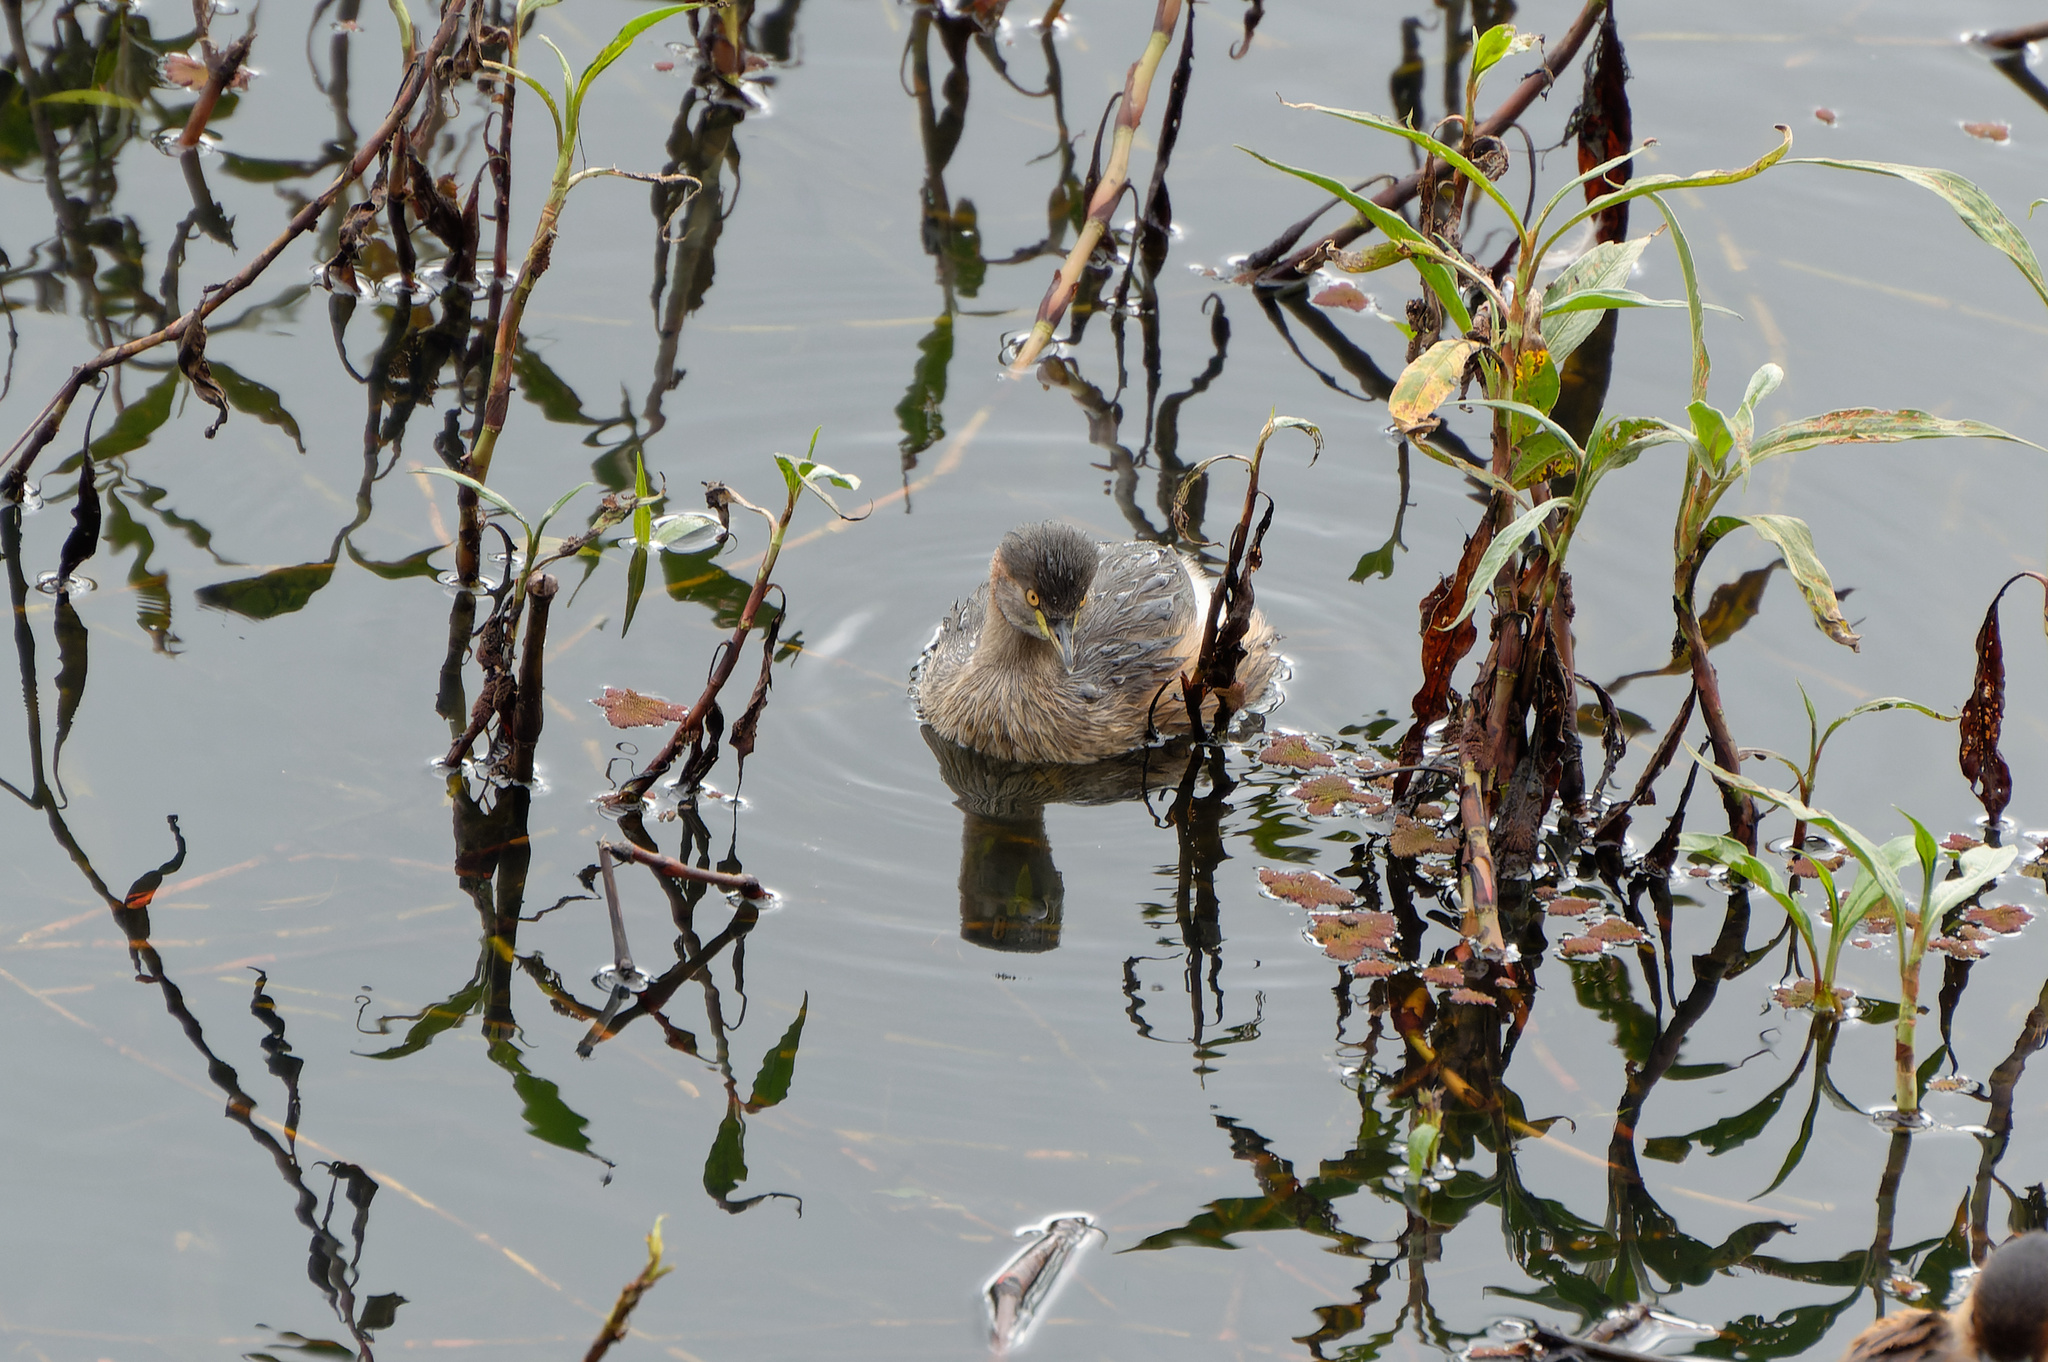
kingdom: Animalia
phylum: Chordata
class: Aves
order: Podicipediformes
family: Podicipedidae
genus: Tachybaptus
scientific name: Tachybaptus novaehollandiae
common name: Australasian grebe
